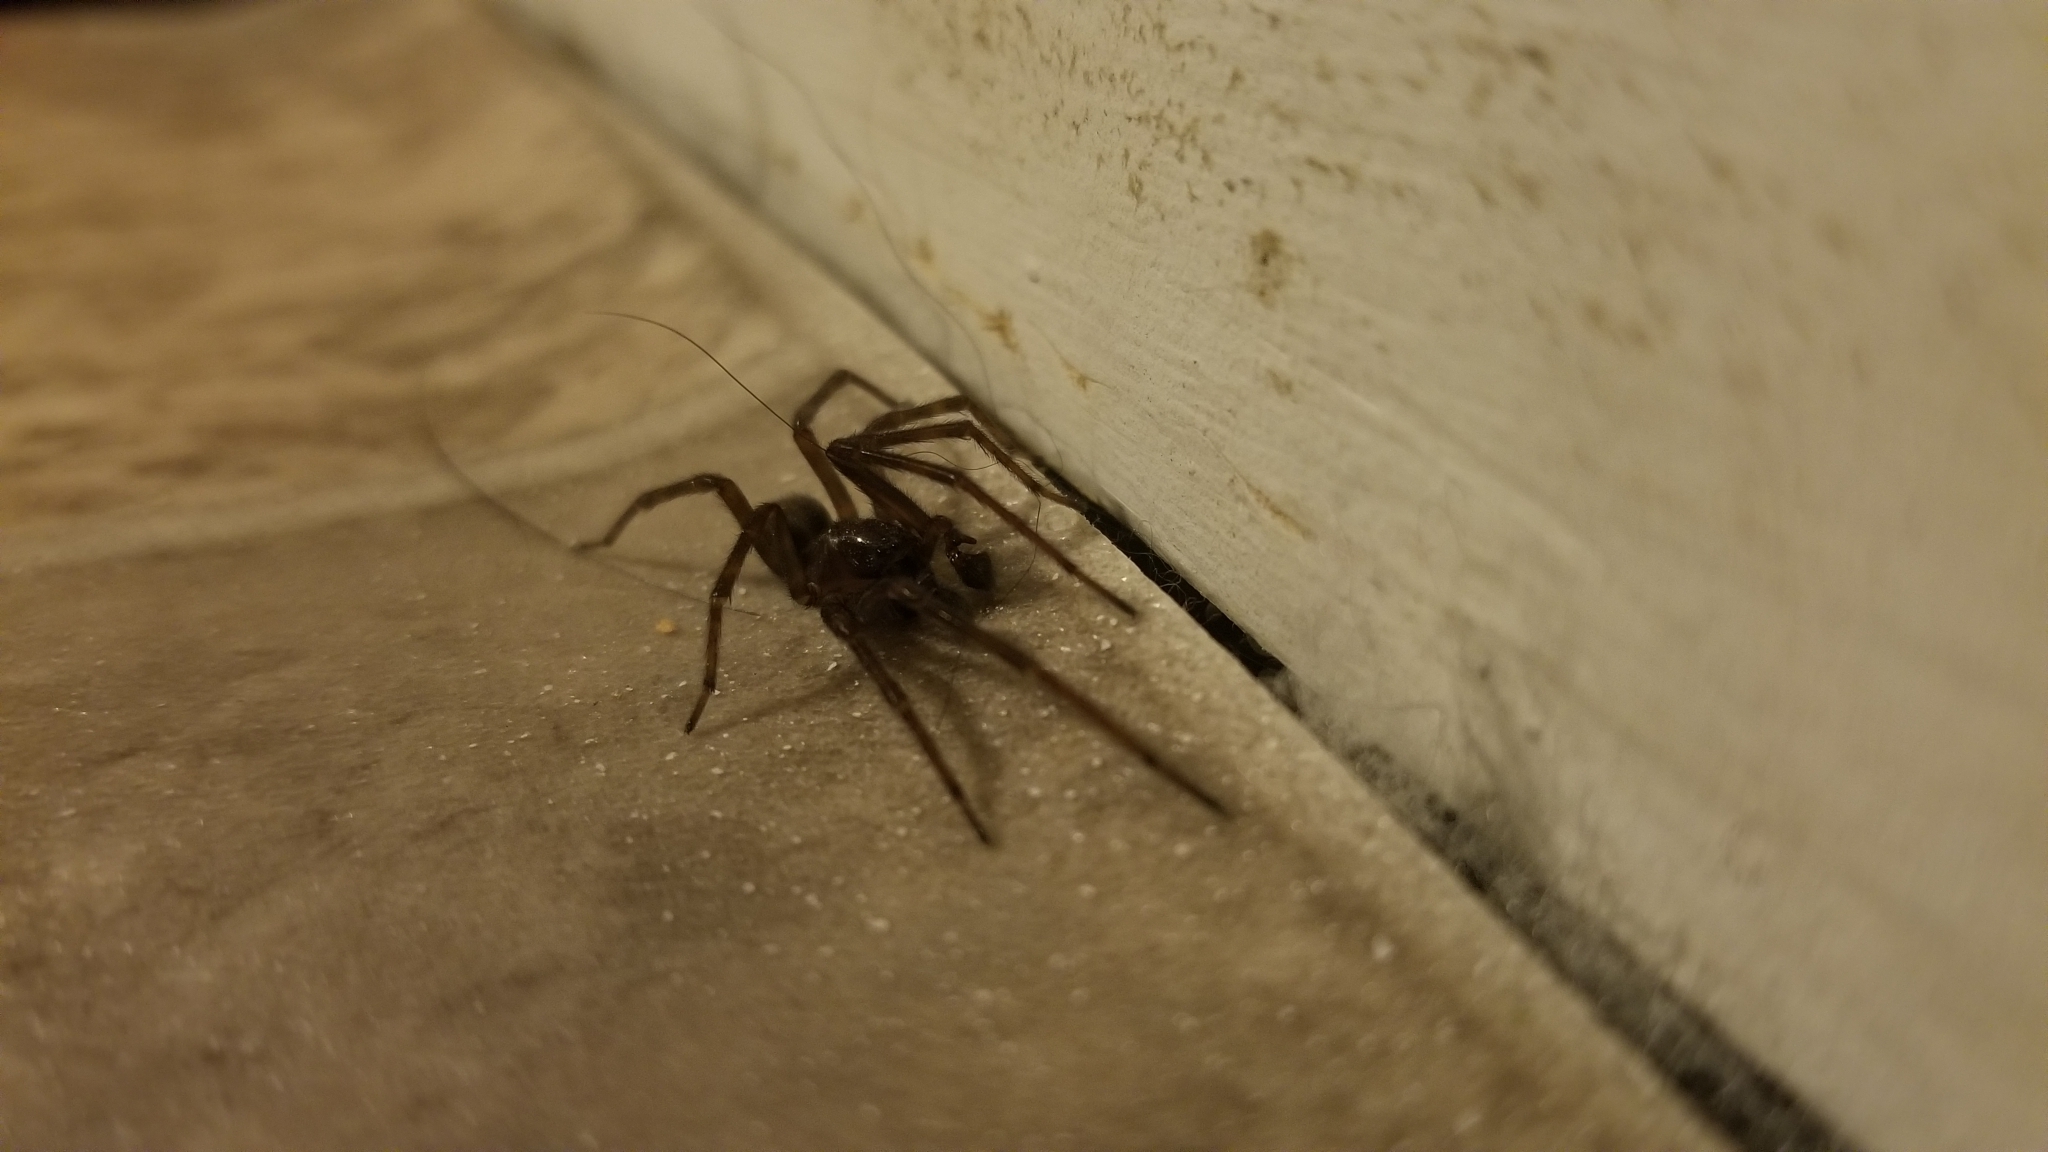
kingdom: Animalia
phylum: Arthropoda
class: Arachnida
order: Araneae
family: Amaurobiidae
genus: Amaurobius
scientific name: Amaurobius ferox
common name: Black laceweaver
